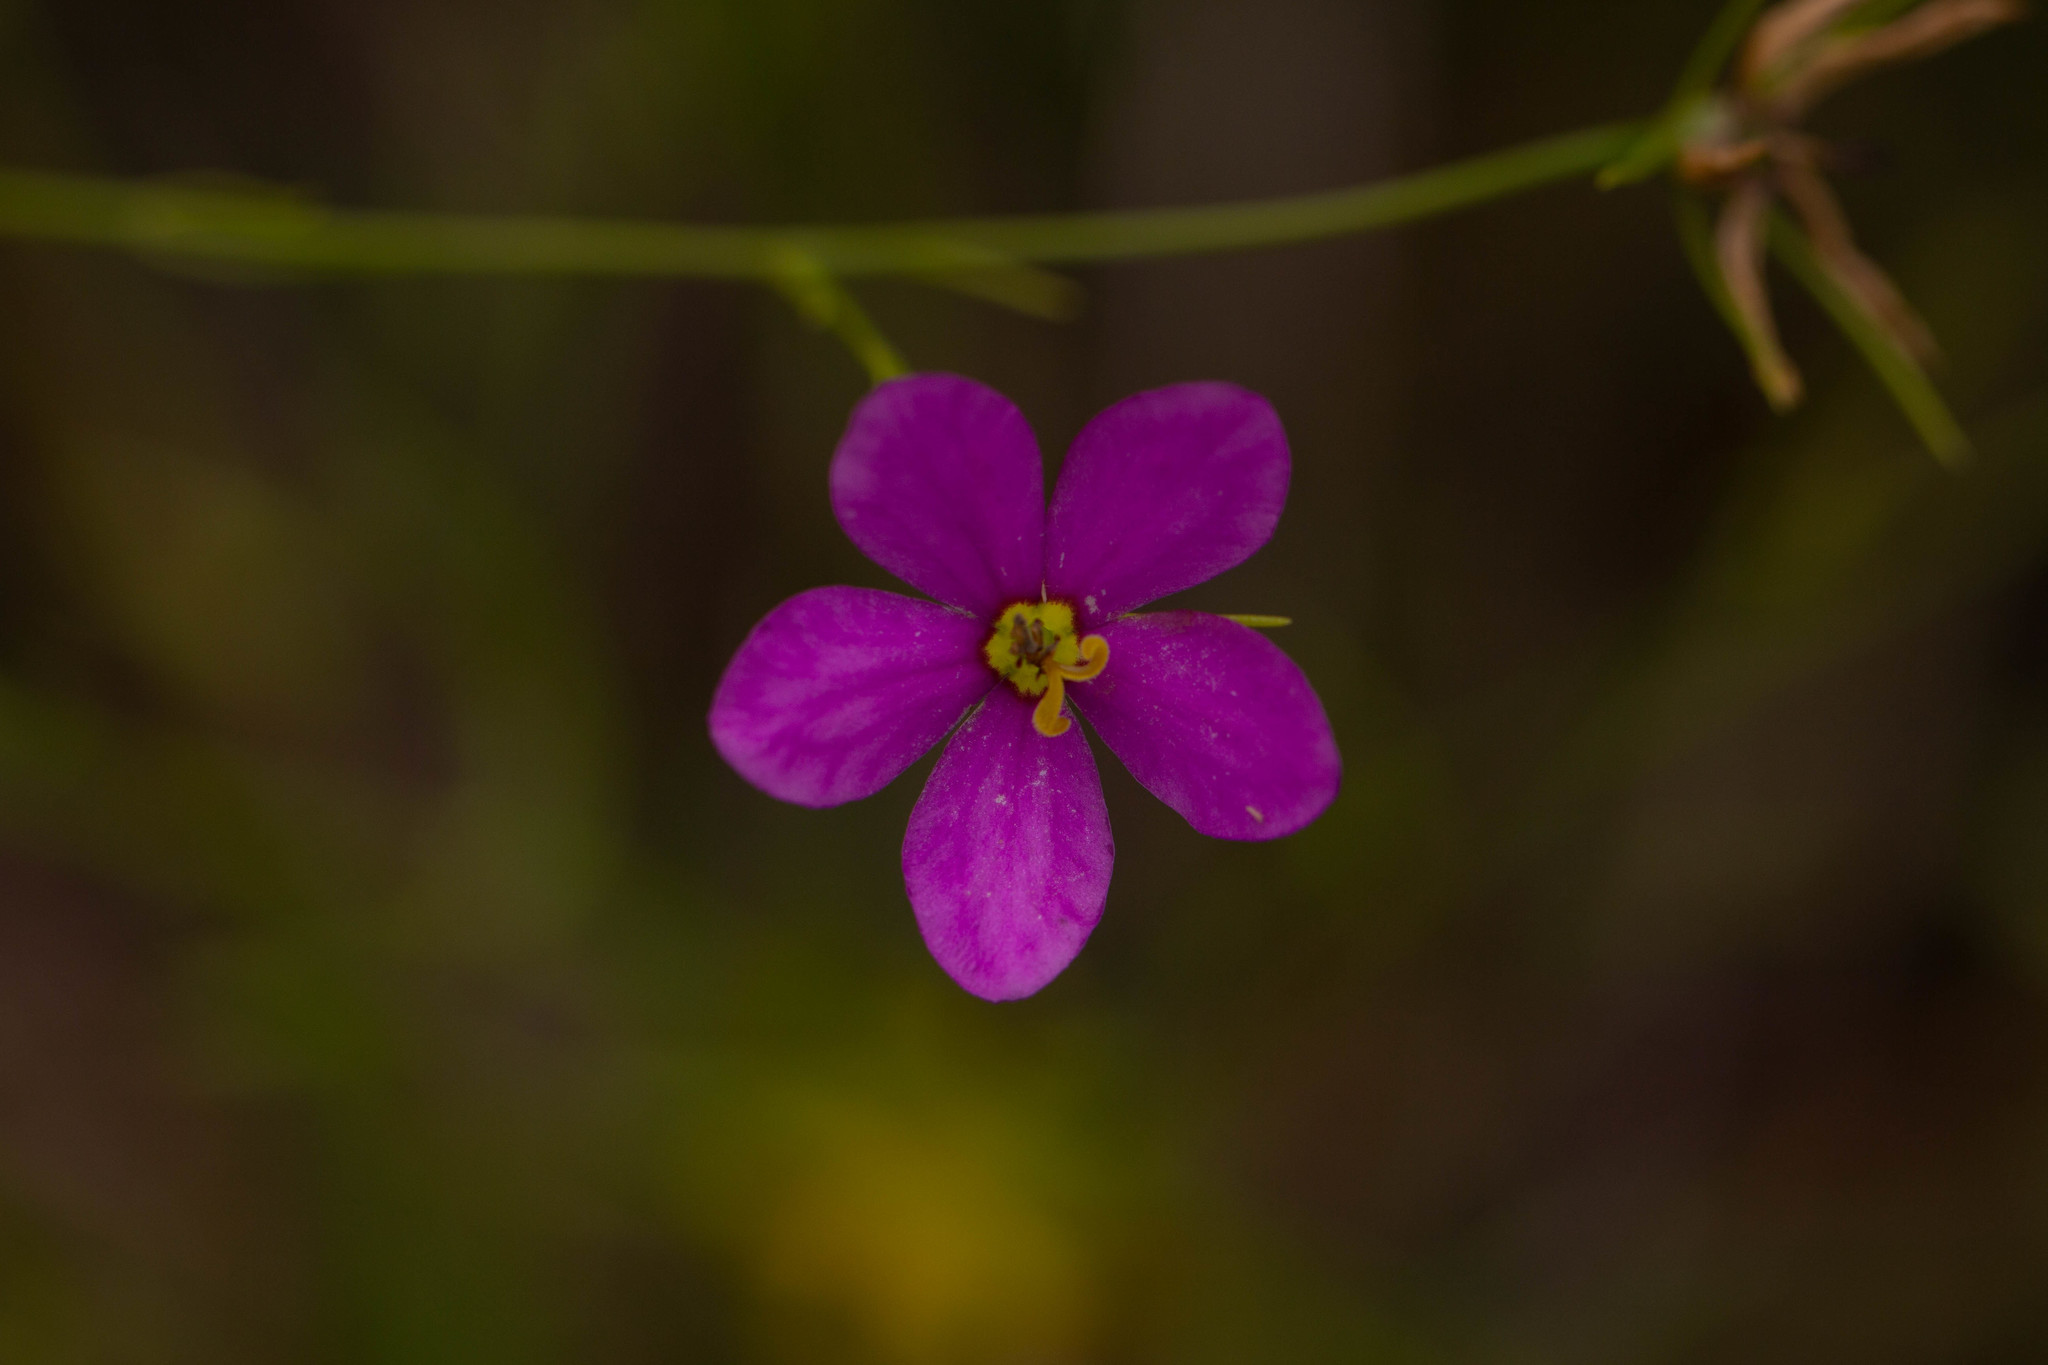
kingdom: Plantae
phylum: Tracheophyta
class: Magnoliopsida
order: Gentianales
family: Gentianaceae
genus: Sabatia
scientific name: Sabatia campanulata
